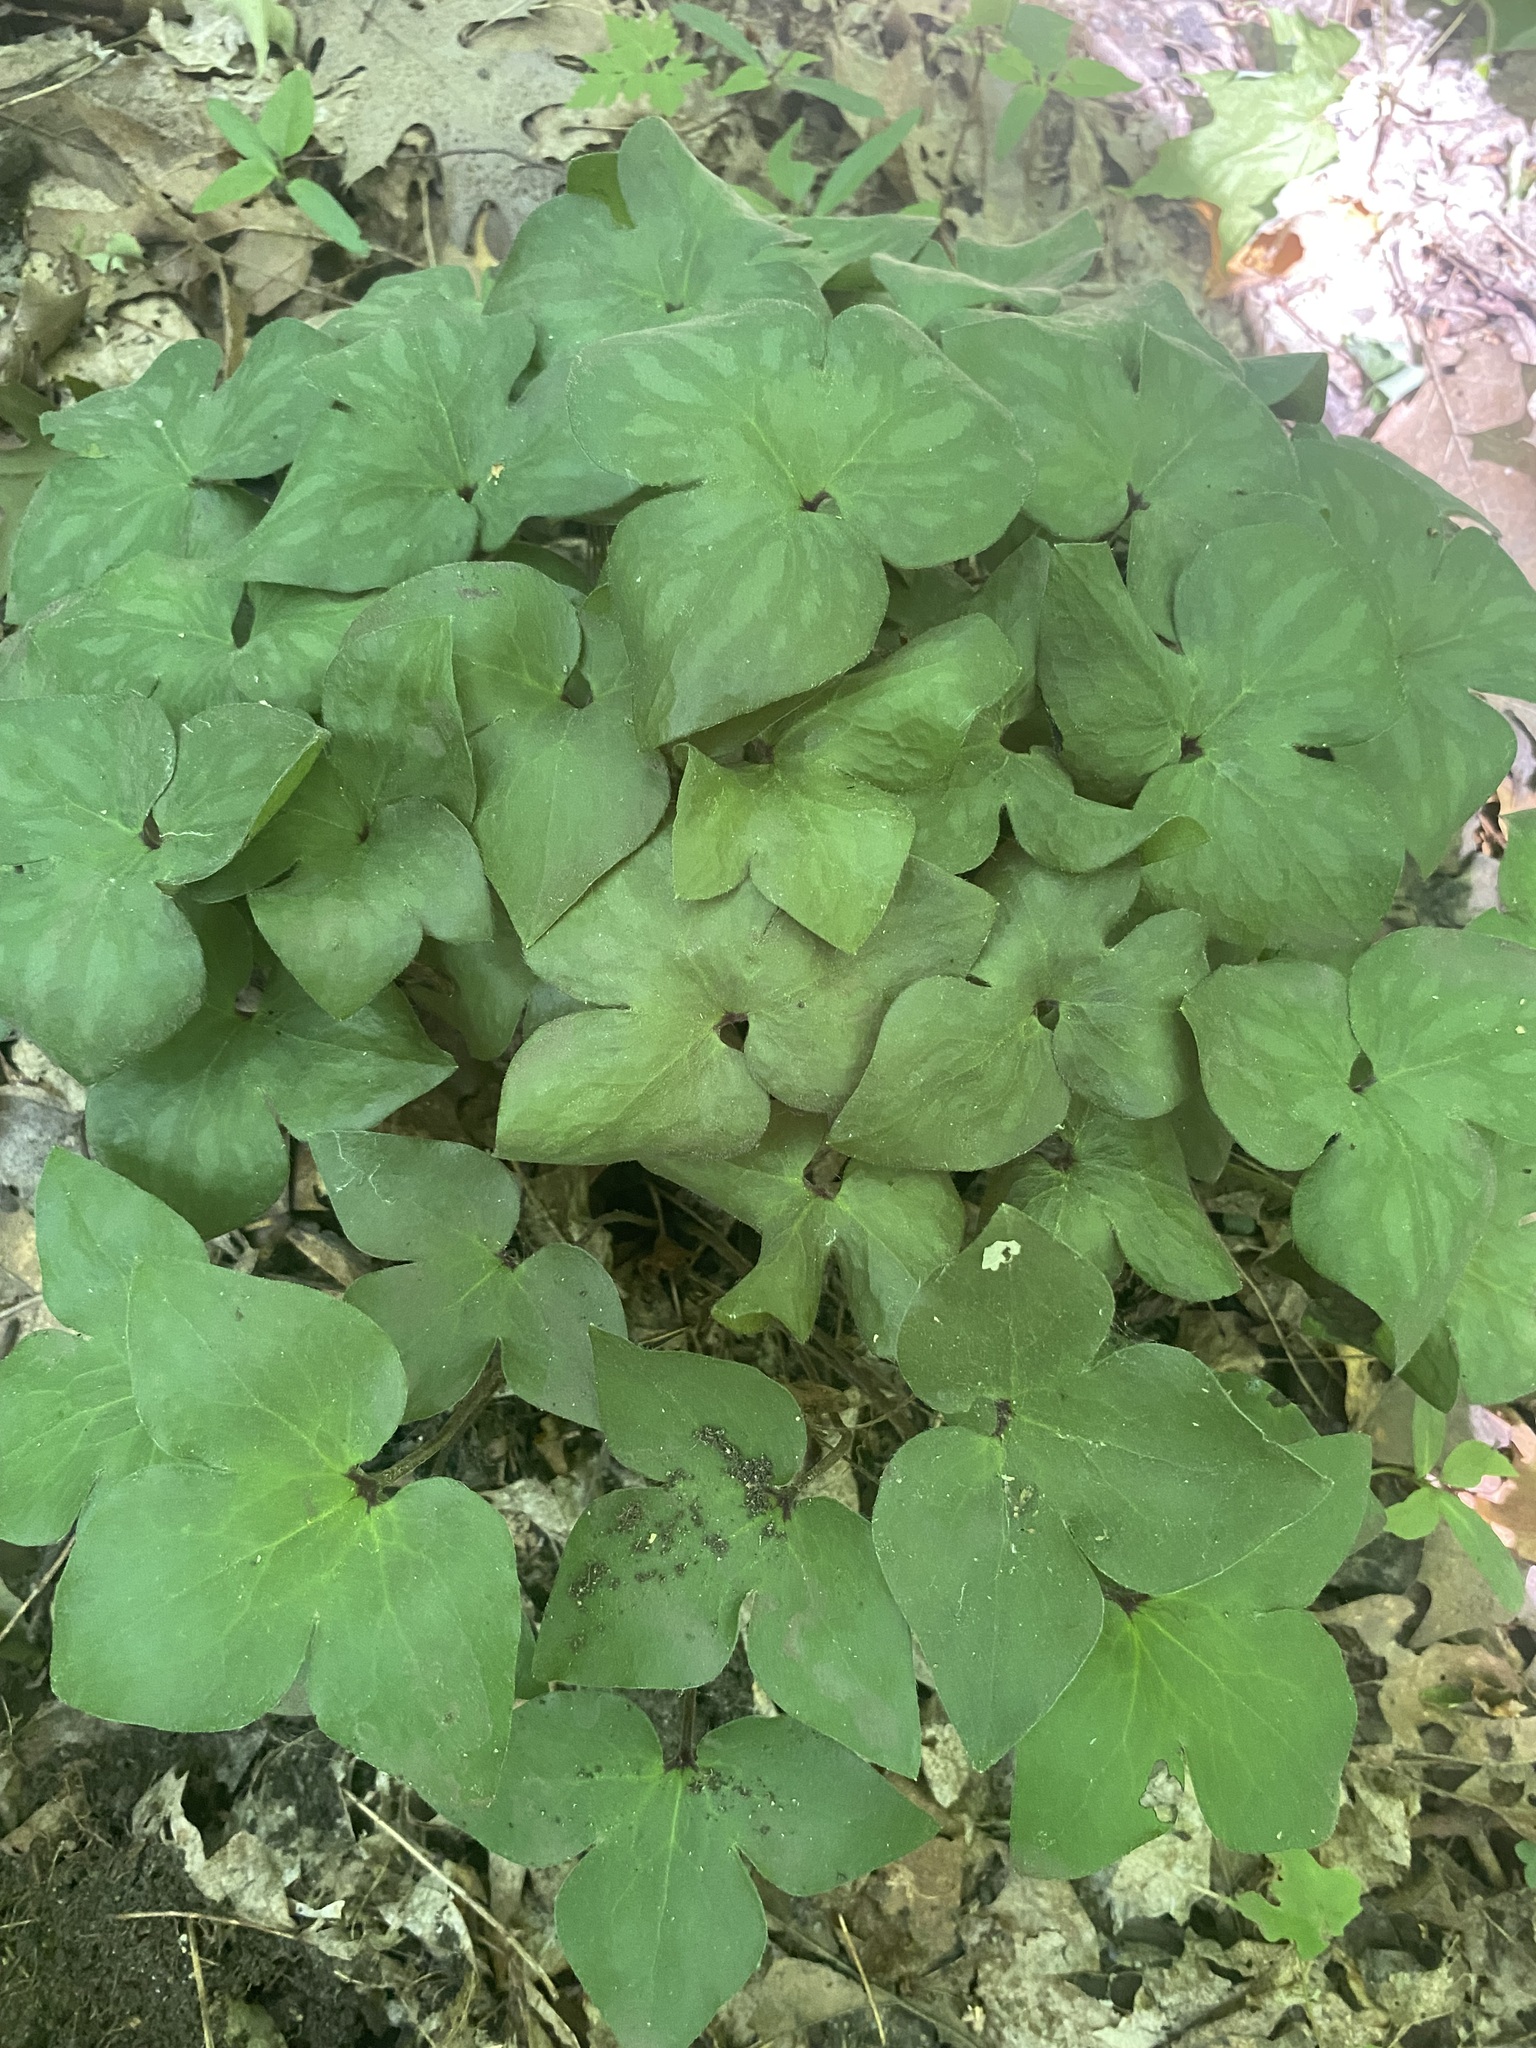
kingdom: Plantae
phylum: Tracheophyta
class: Magnoliopsida
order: Ranunculales
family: Ranunculaceae
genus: Hepatica
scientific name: Hepatica acutiloba
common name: Sharp-lobed hepatica
